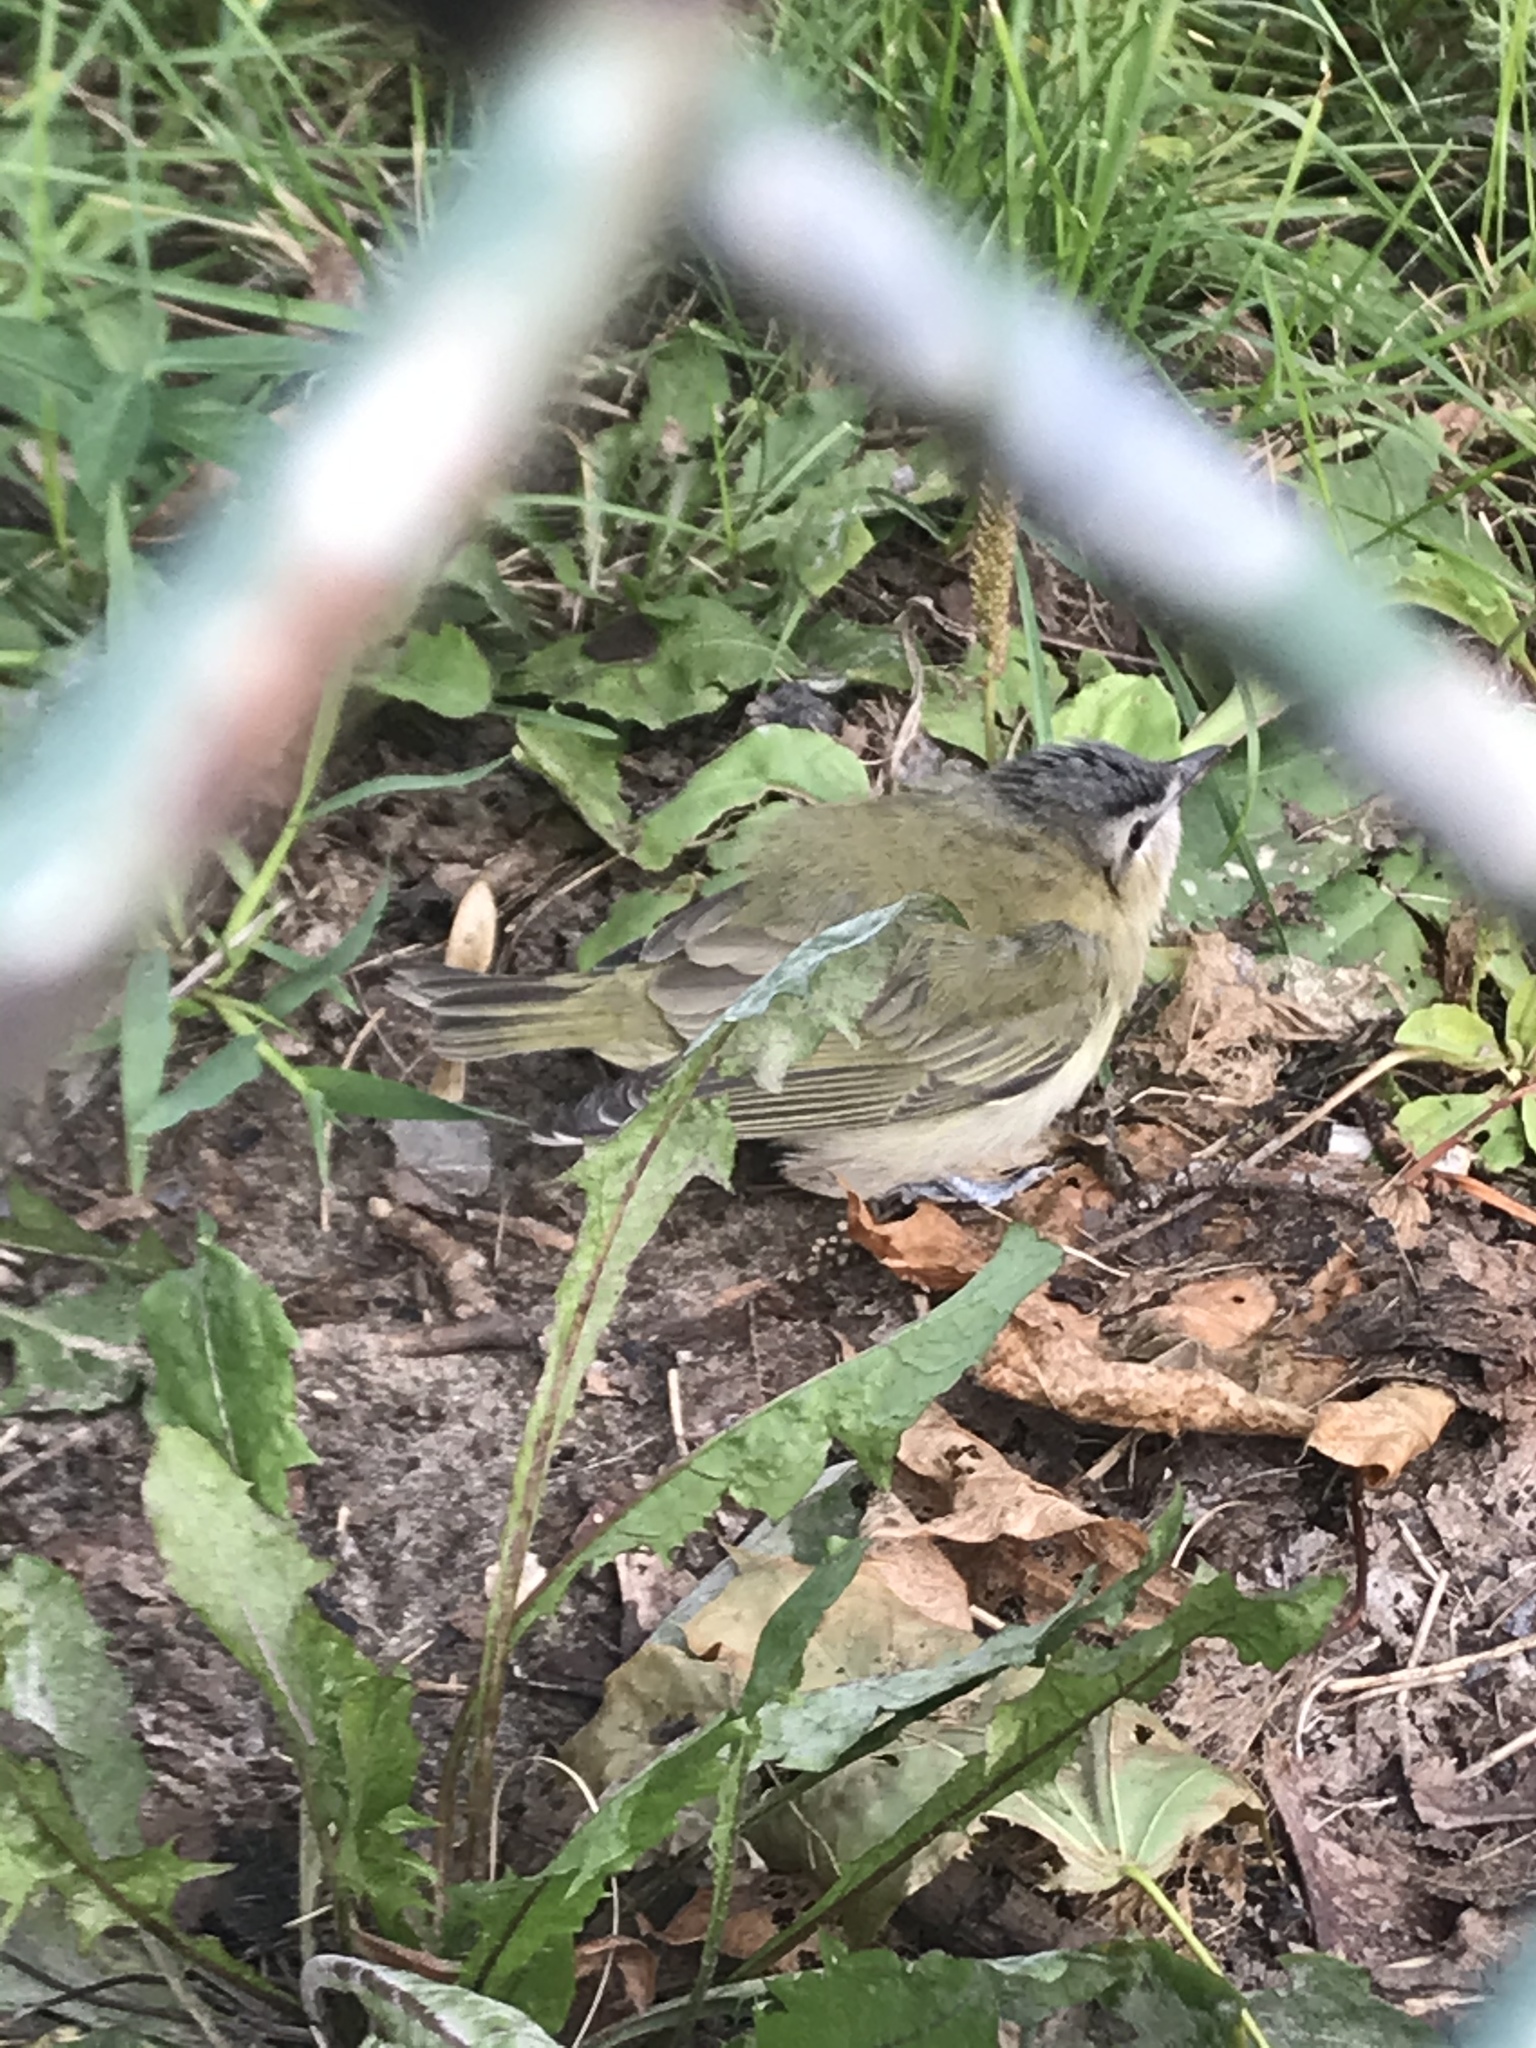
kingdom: Animalia
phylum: Chordata
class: Aves
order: Passeriformes
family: Vireonidae
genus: Vireo
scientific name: Vireo olivaceus
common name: Red-eyed vireo
